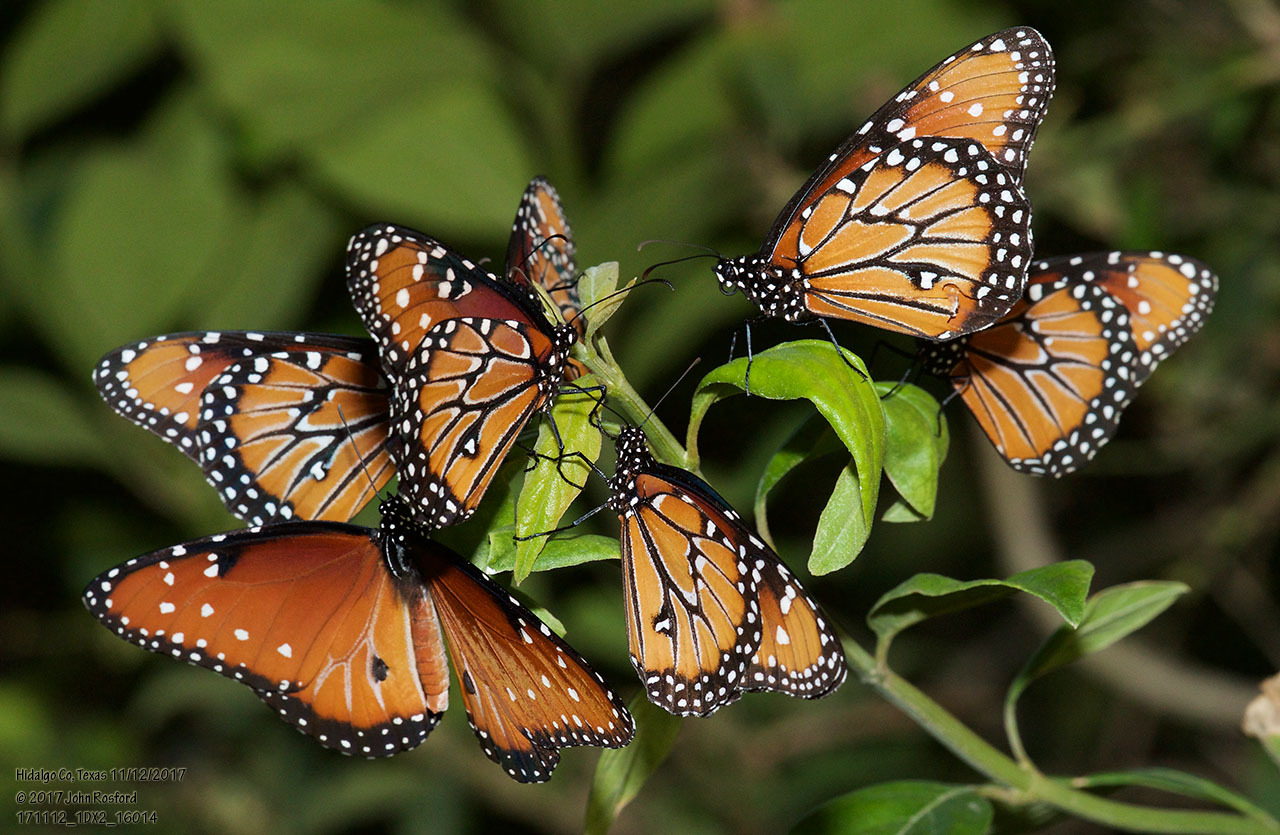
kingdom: Animalia
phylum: Arthropoda
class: Insecta
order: Lepidoptera
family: Nymphalidae
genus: Danaus
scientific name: Danaus gilippus
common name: Queen
